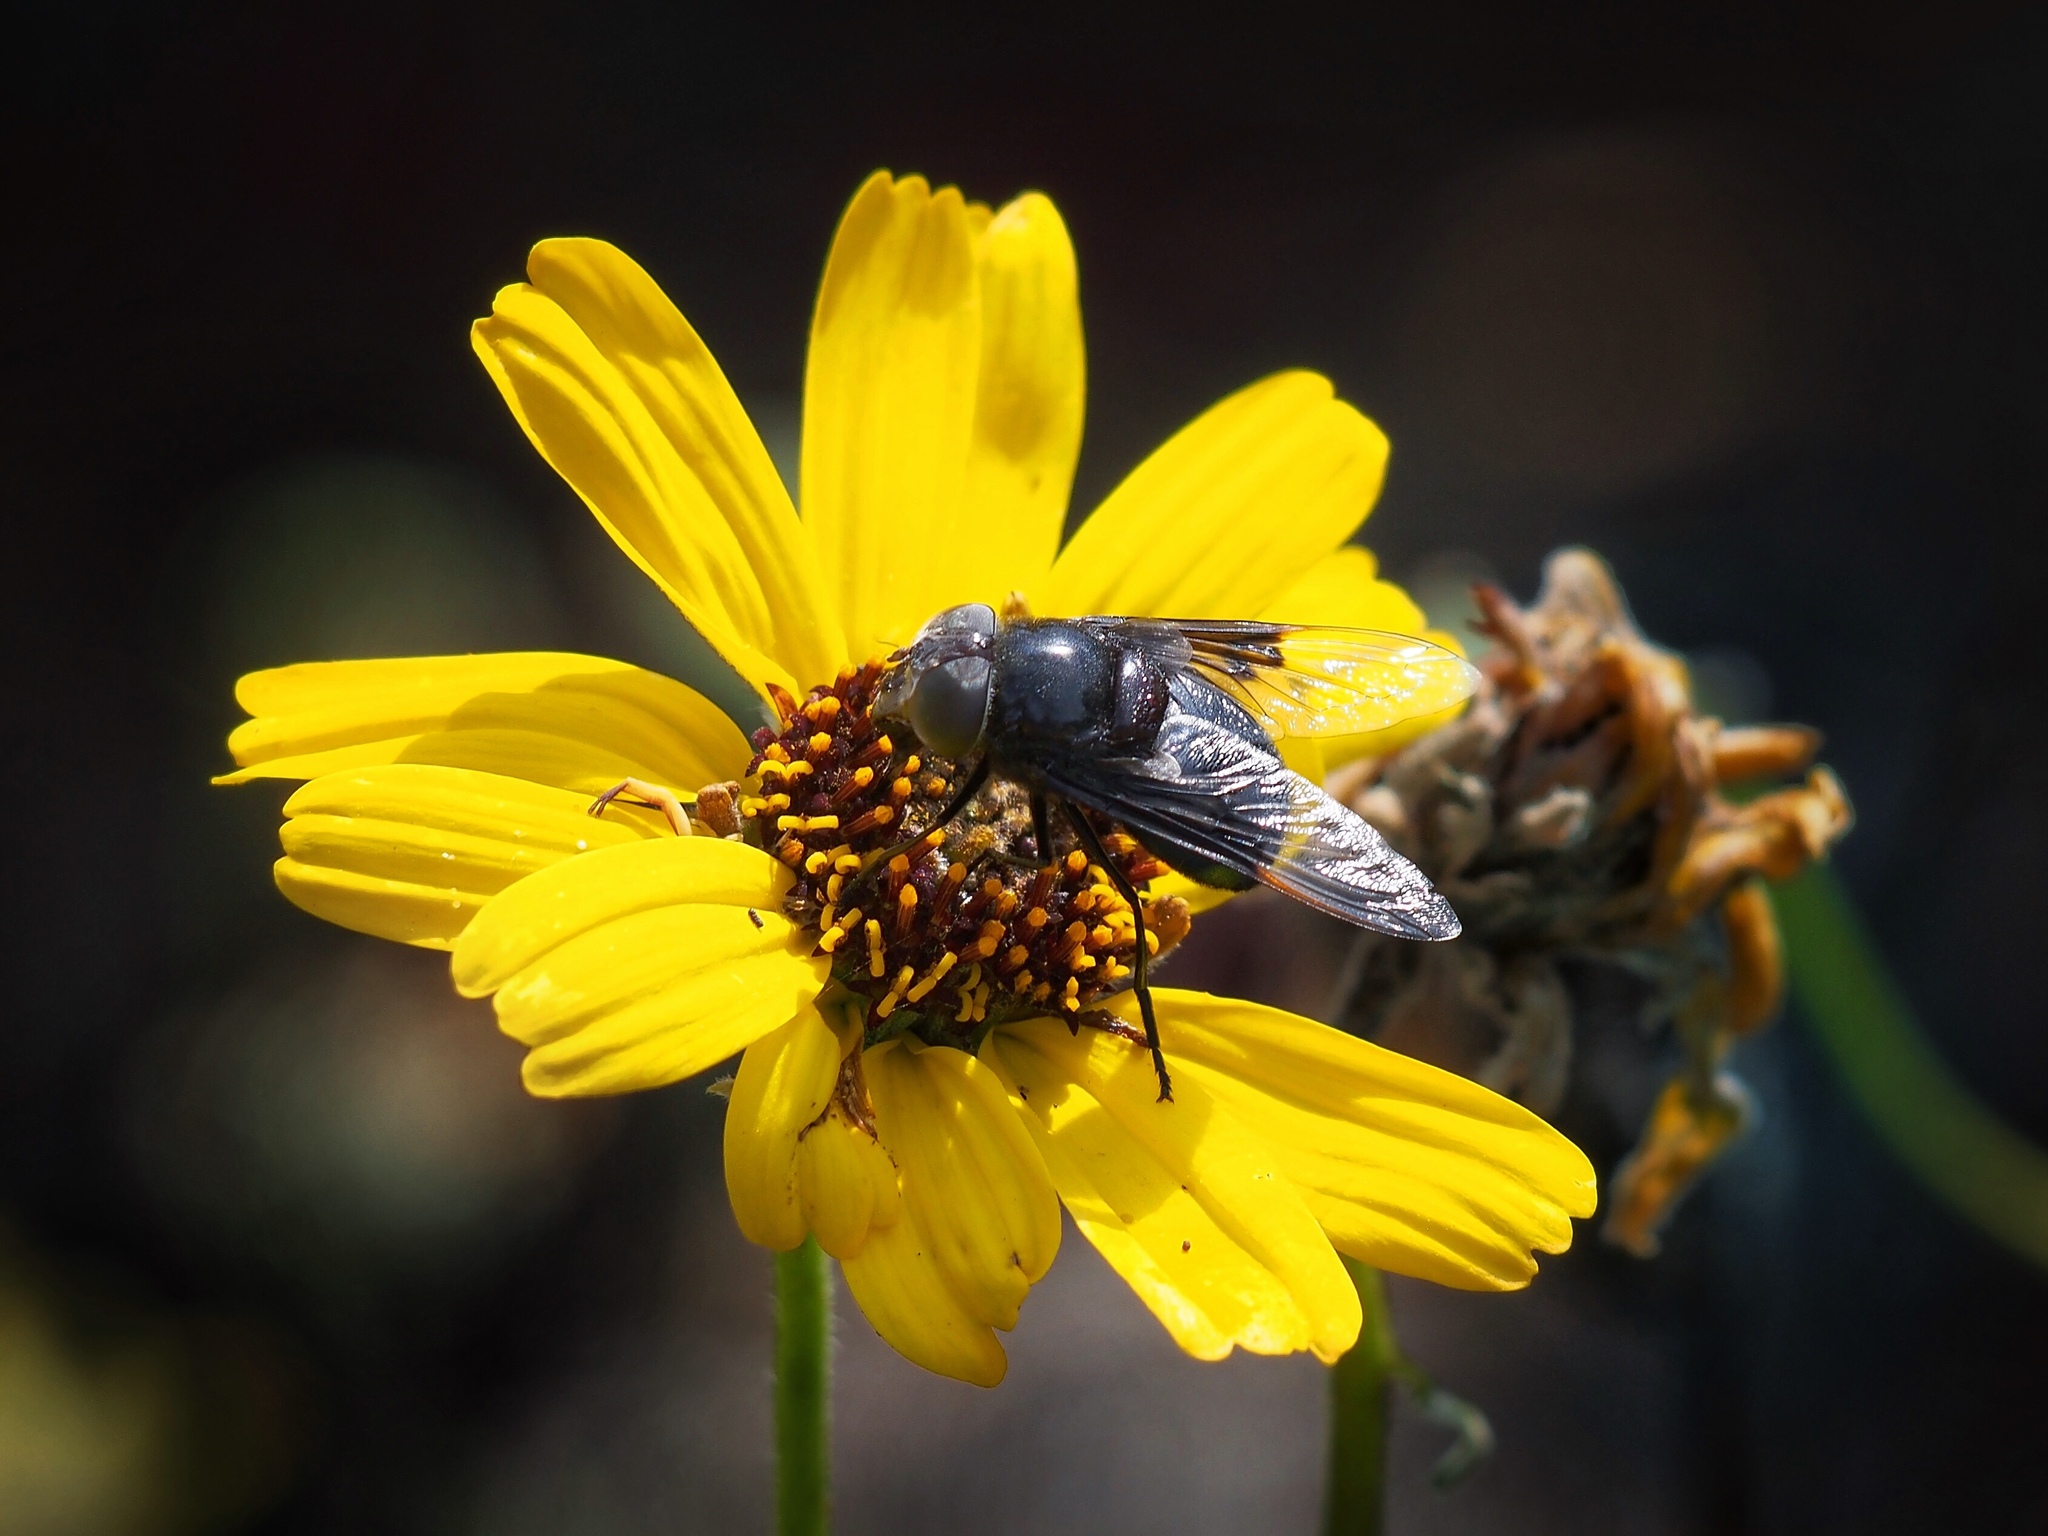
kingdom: Animalia
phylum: Arthropoda
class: Insecta
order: Diptera
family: Syrphidae
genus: Copestylum
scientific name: Copestylum
